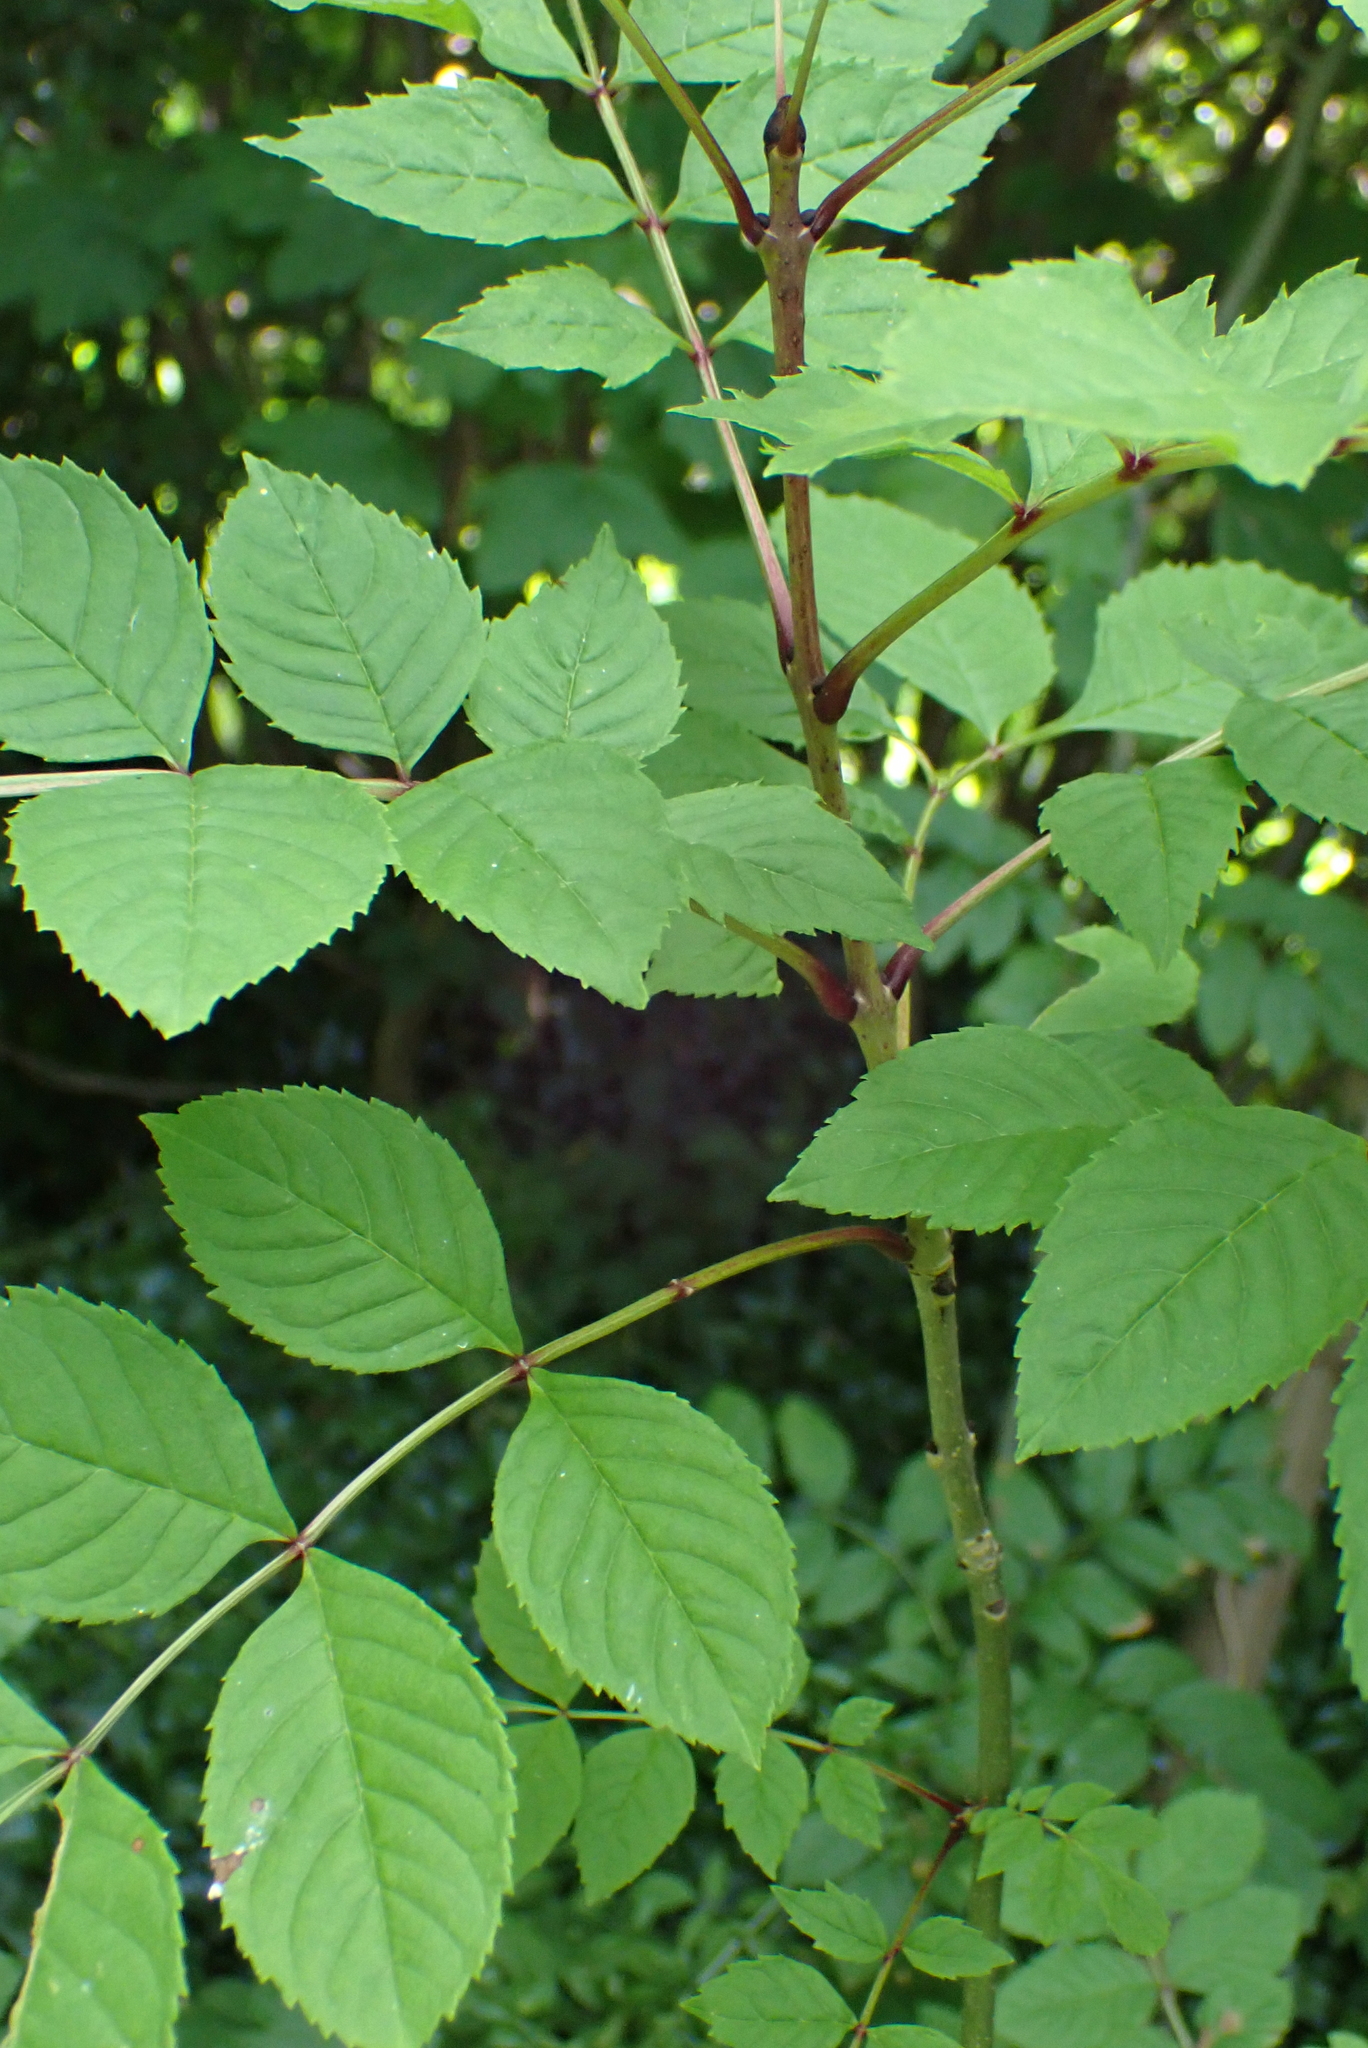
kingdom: Plantae
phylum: Tracheophyta
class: Magnoliopsida
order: Lamiales
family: Oleaceae
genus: Fraxinus
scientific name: Fraxinus excelsior
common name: European ash
